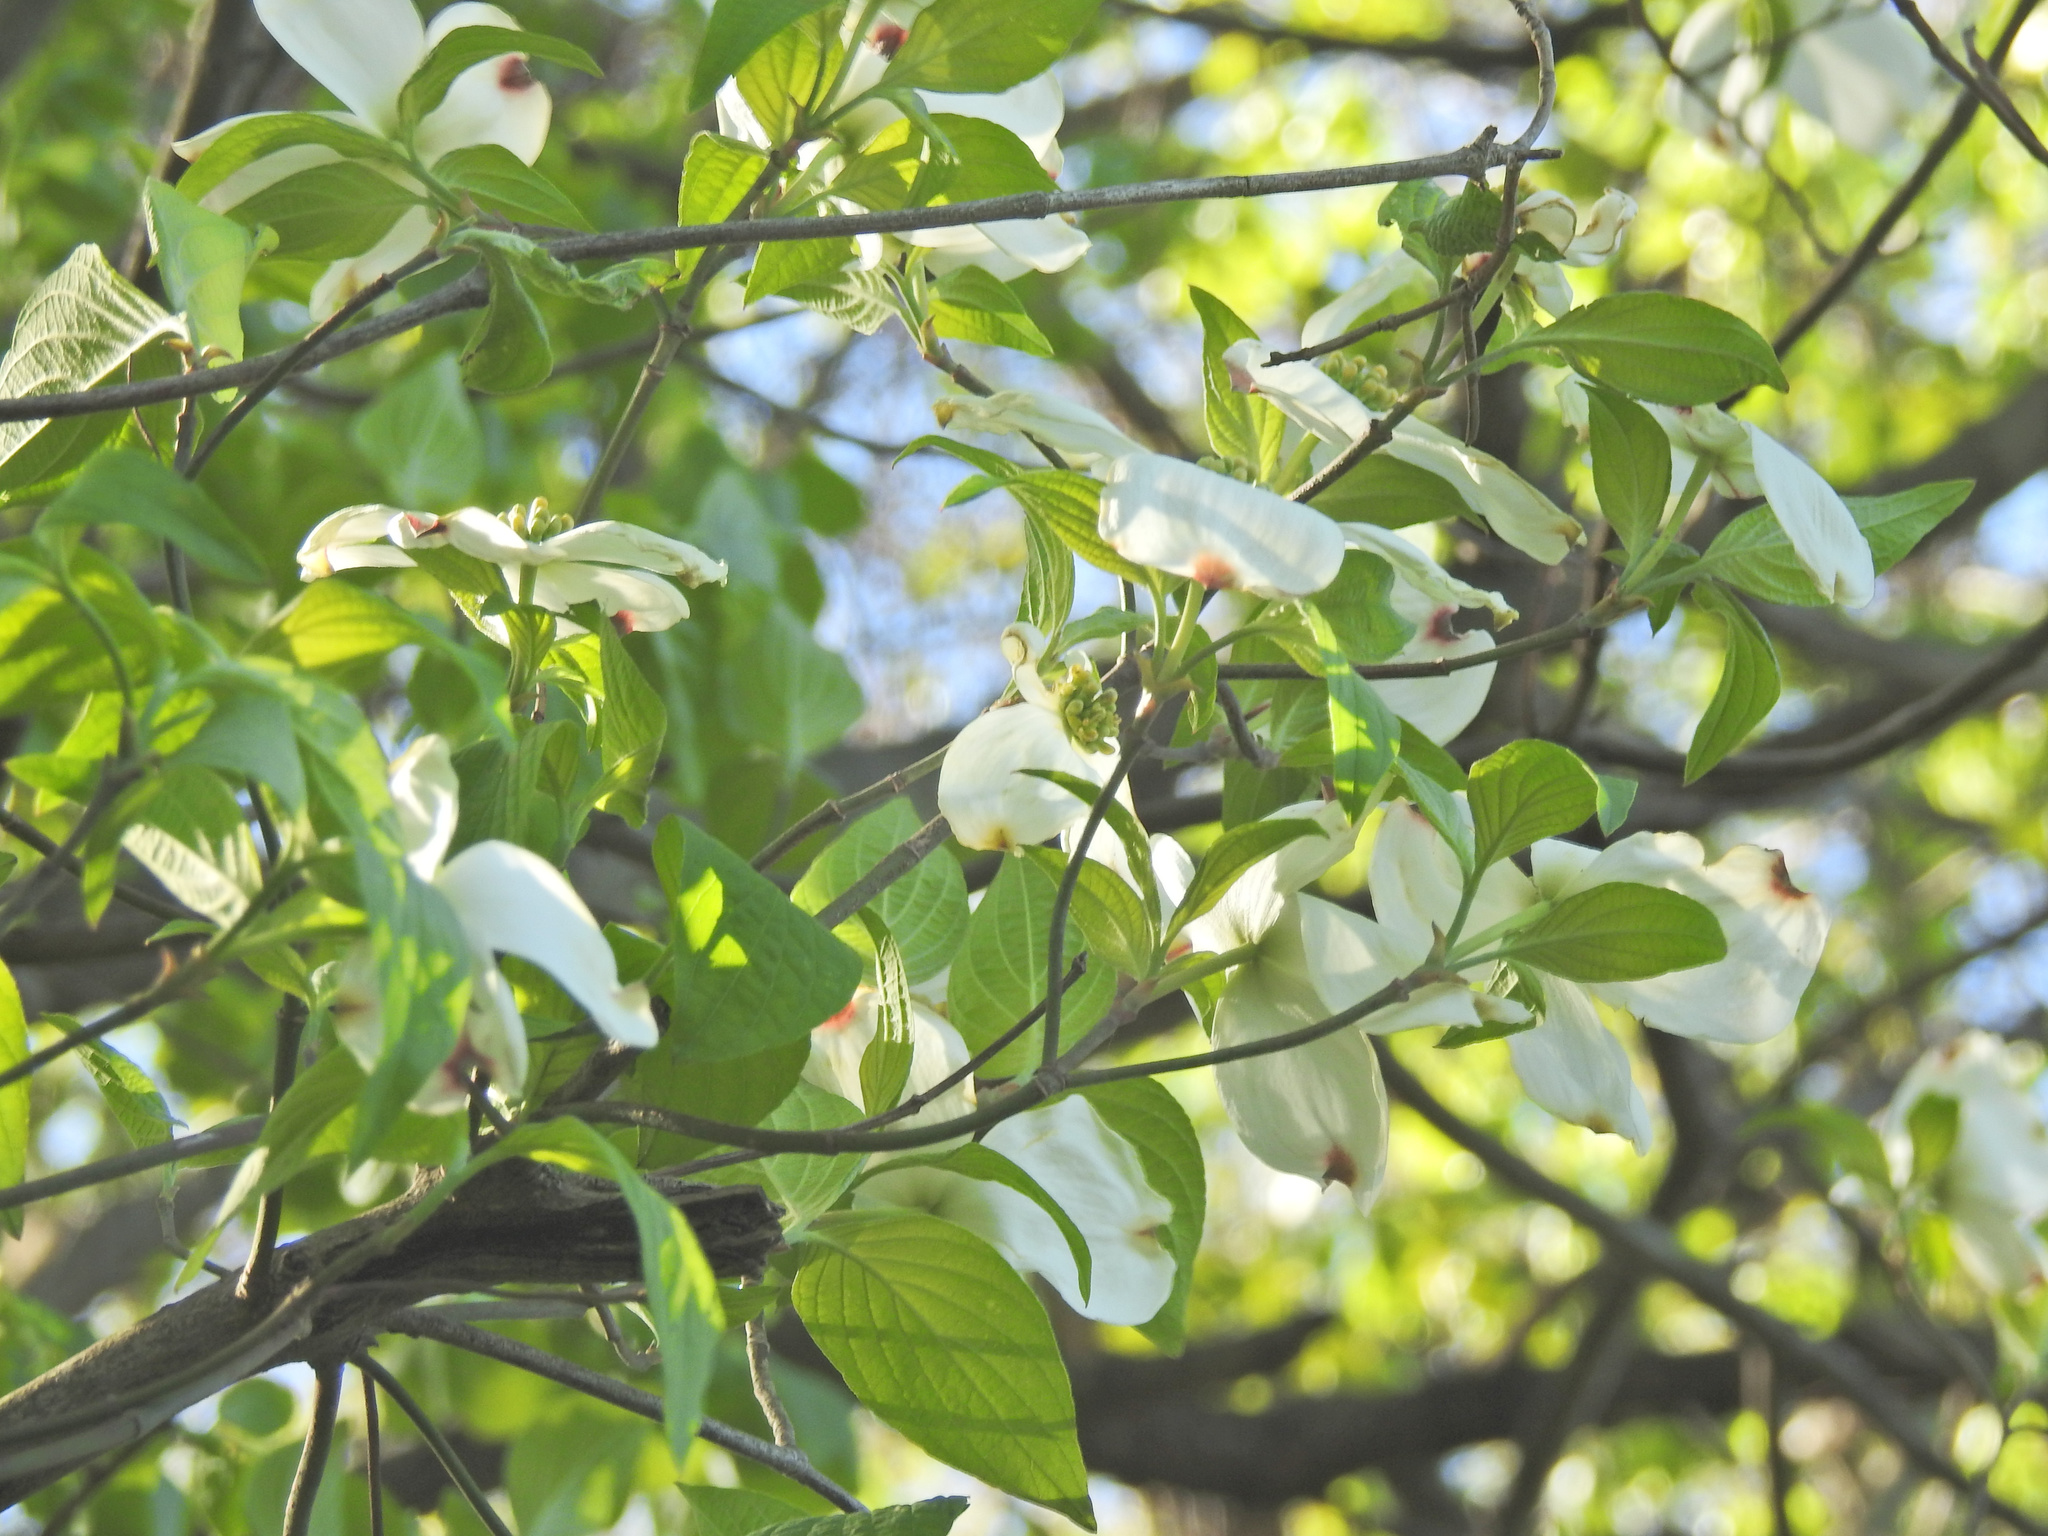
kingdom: Plantae
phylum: Tracheophyta
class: Magnoliopsida
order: Cornales
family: Cornaceae
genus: Cornus
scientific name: Cornus florida
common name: Flowering dogwood
